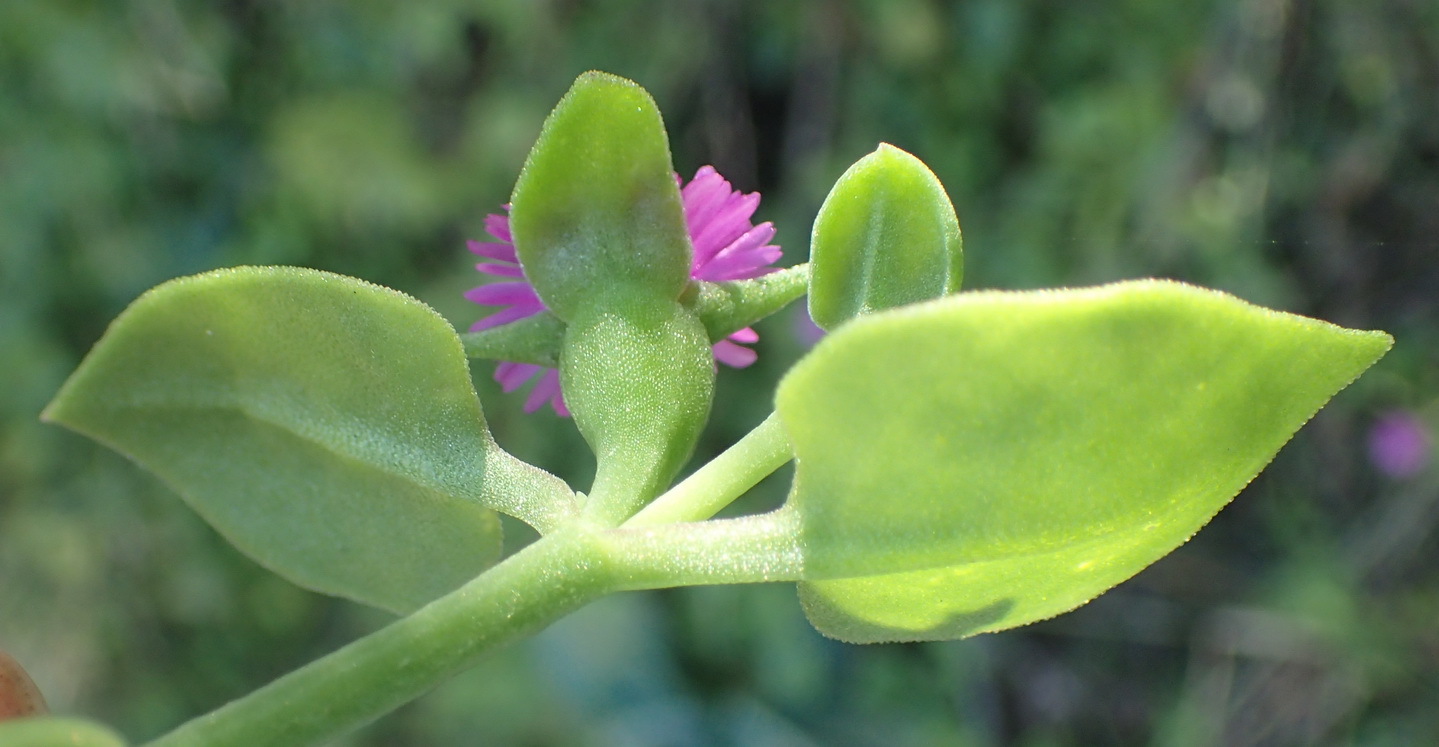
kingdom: Plantae
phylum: Tracheophyta
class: Magnoliopsida
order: Caryophyllales
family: Aizoaceae
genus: Mesembryanthemum
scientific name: Mesembryanthemum cordifolium
